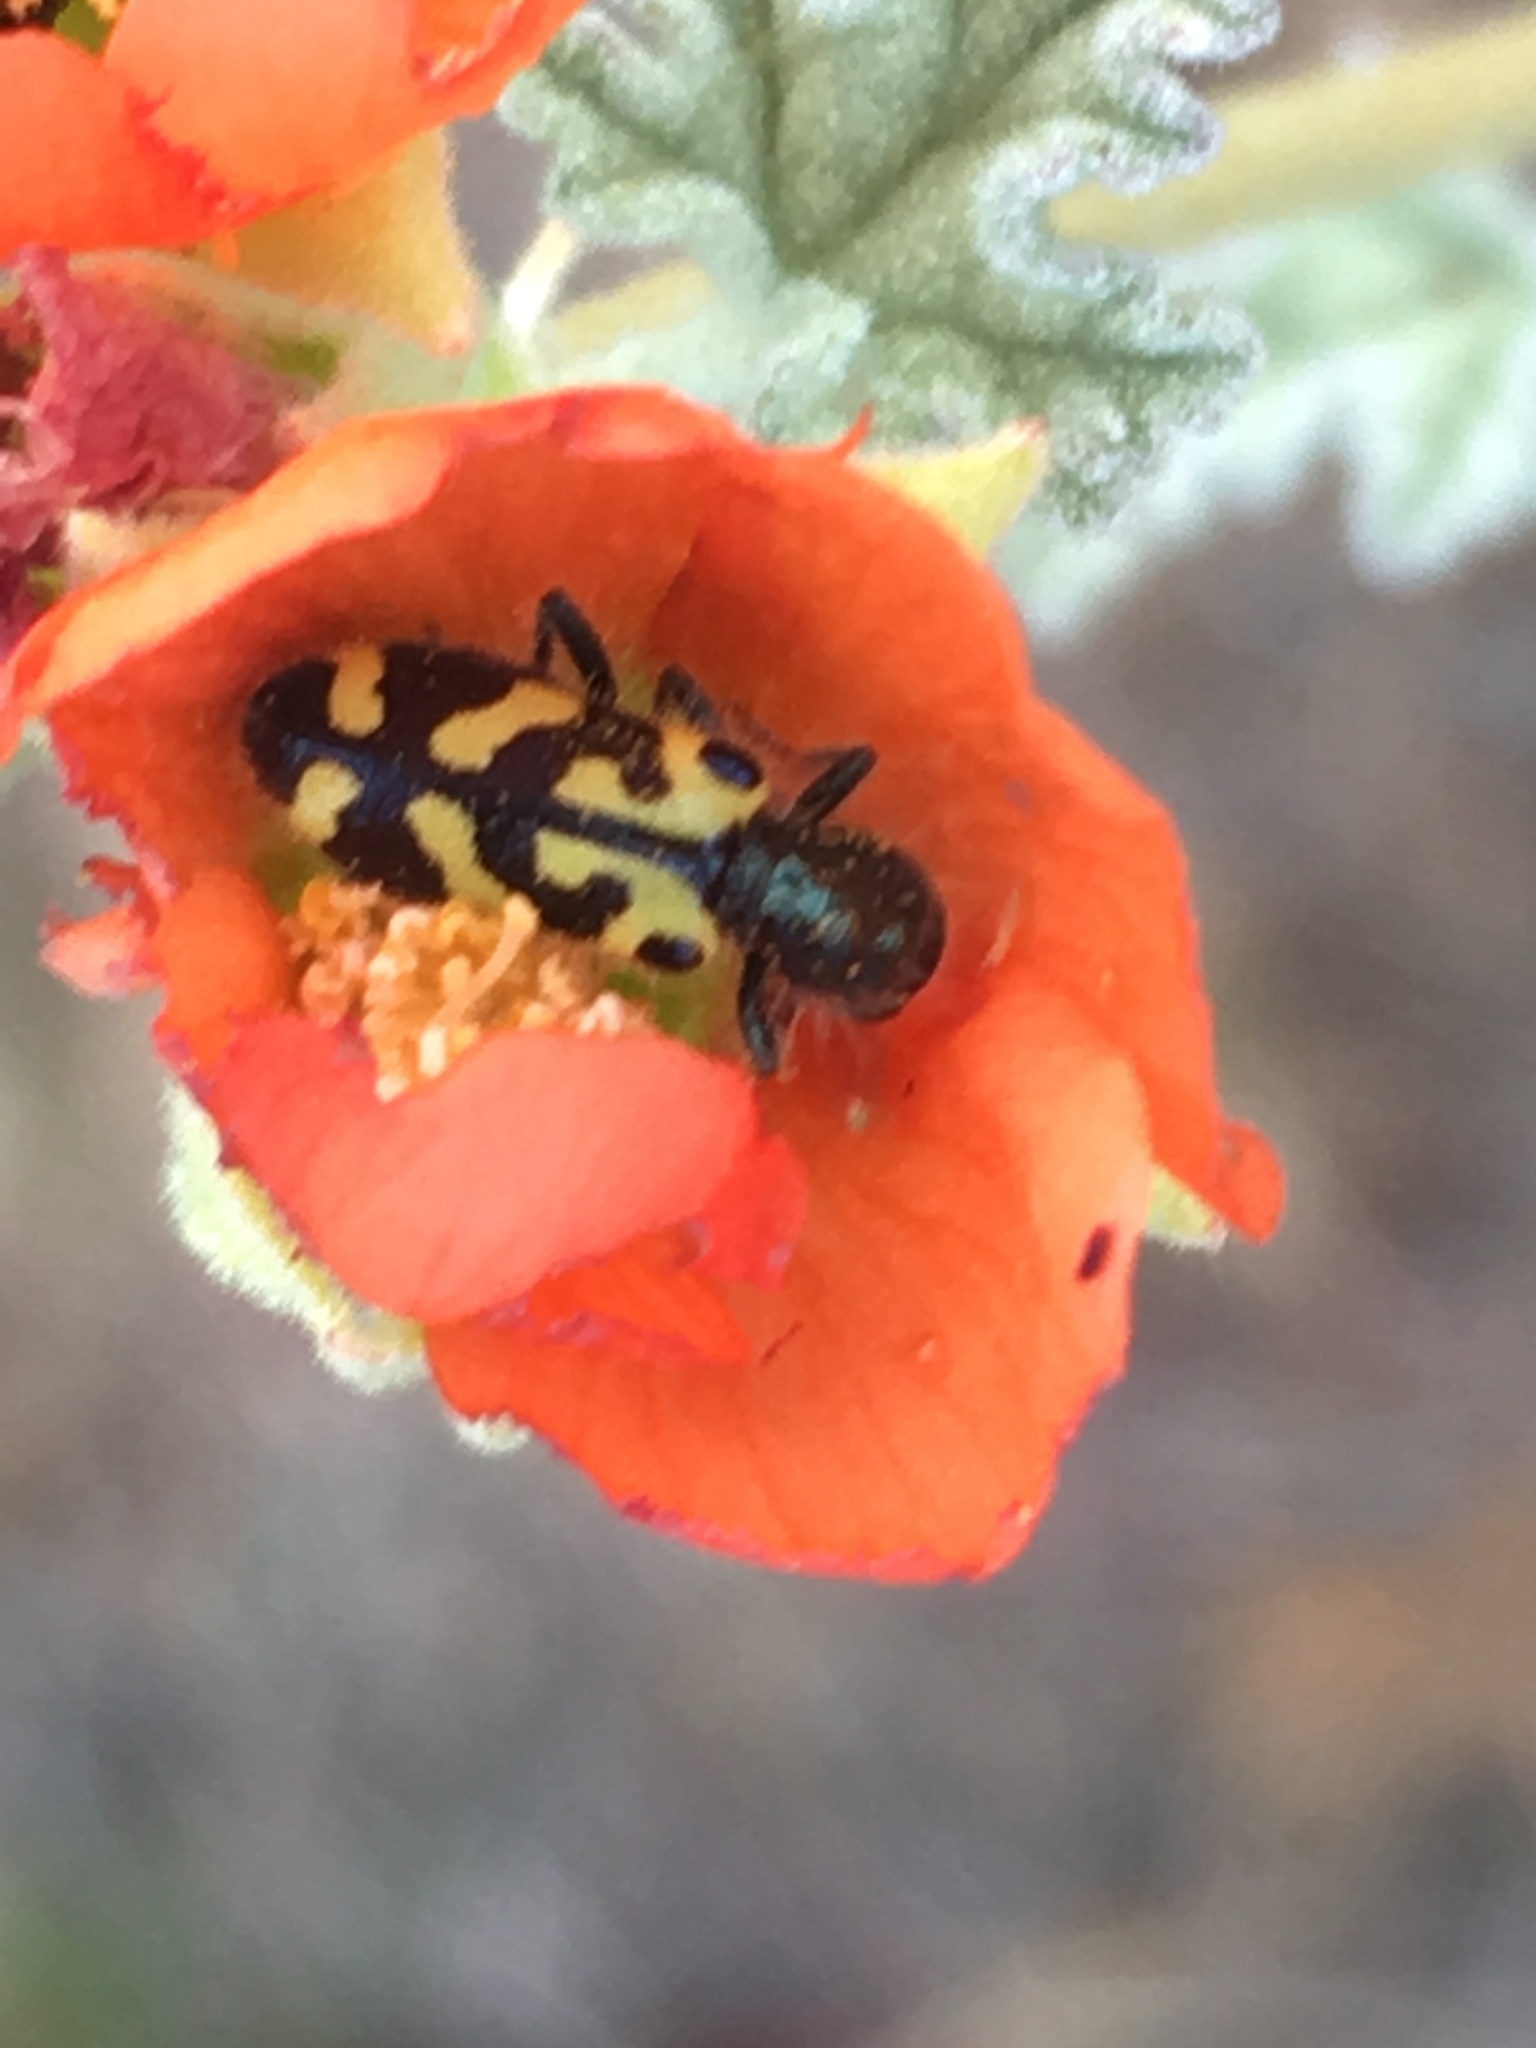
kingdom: Animalia
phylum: Arthropoda
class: Insecta
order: Coleoptera
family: Cleridae
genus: Trichodes
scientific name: Trichodes ornatus
